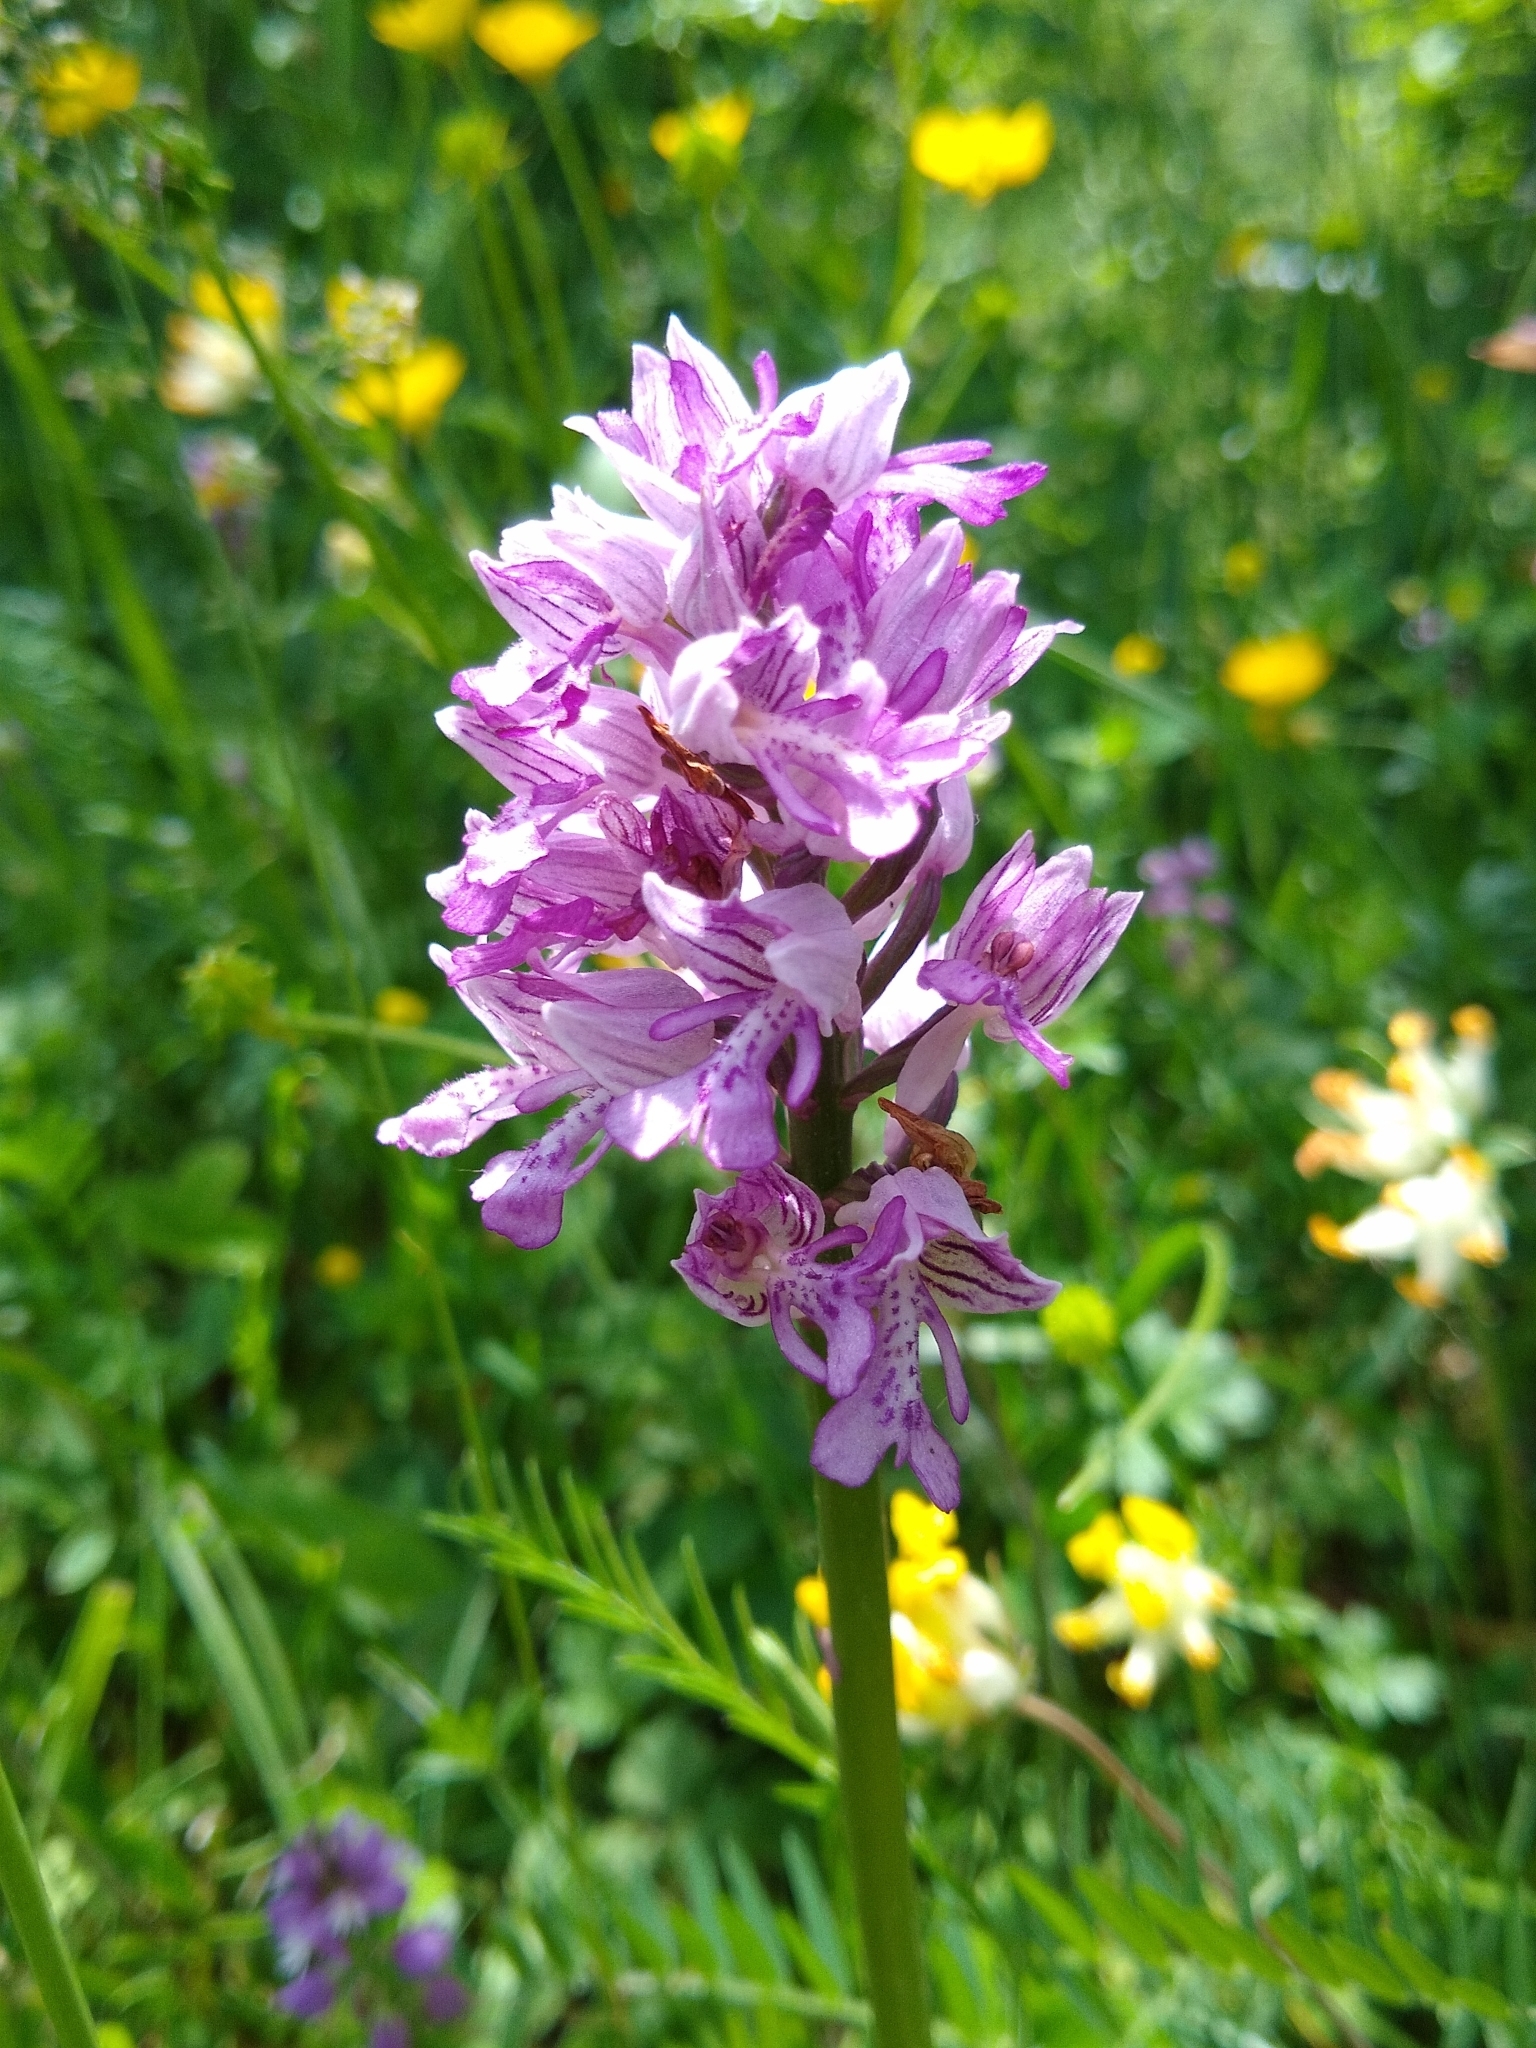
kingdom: Plantae
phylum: Tracheophyta
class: Liliopsida
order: Asparagales
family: Orchidaceae
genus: Orchis
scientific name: Orchis militaris
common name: Military orchid
